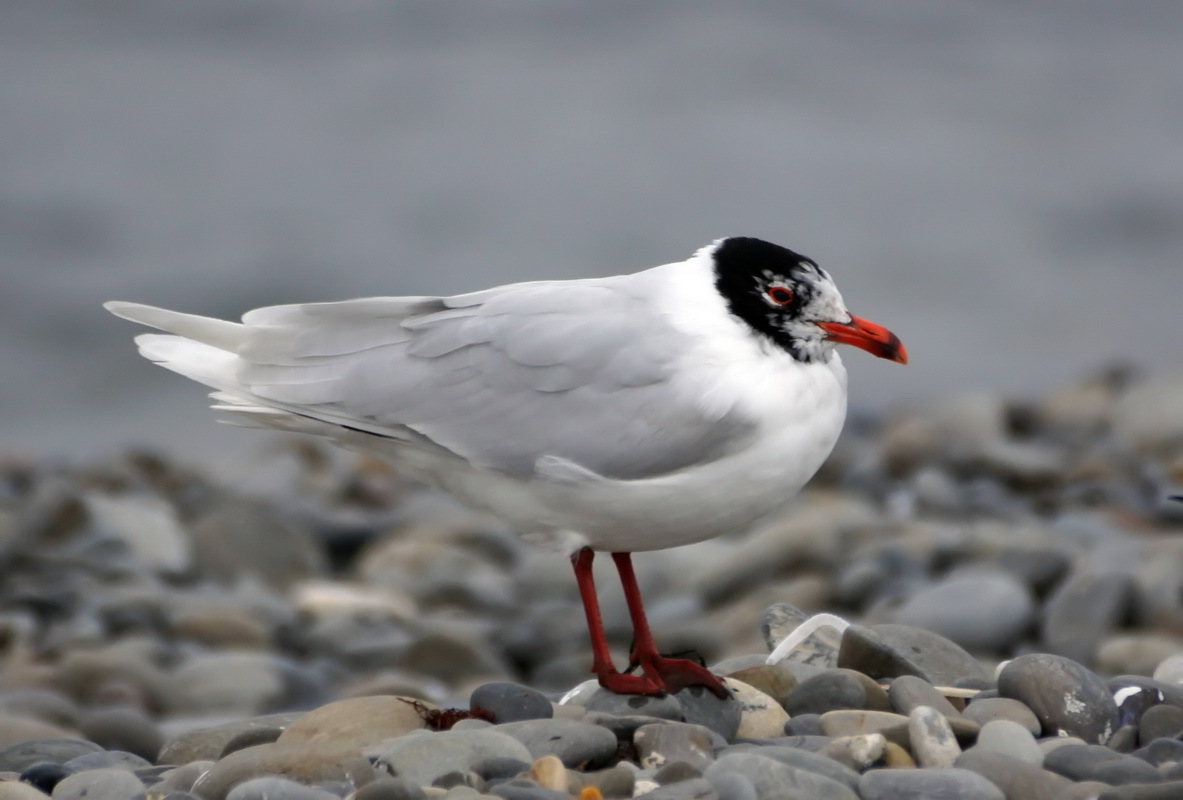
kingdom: Animalia
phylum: Chordata
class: Aves
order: Charadriiformes
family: Laridae
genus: Ichthyaetus
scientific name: Ichthyaetus melanocephalus
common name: Mediterranean gull
